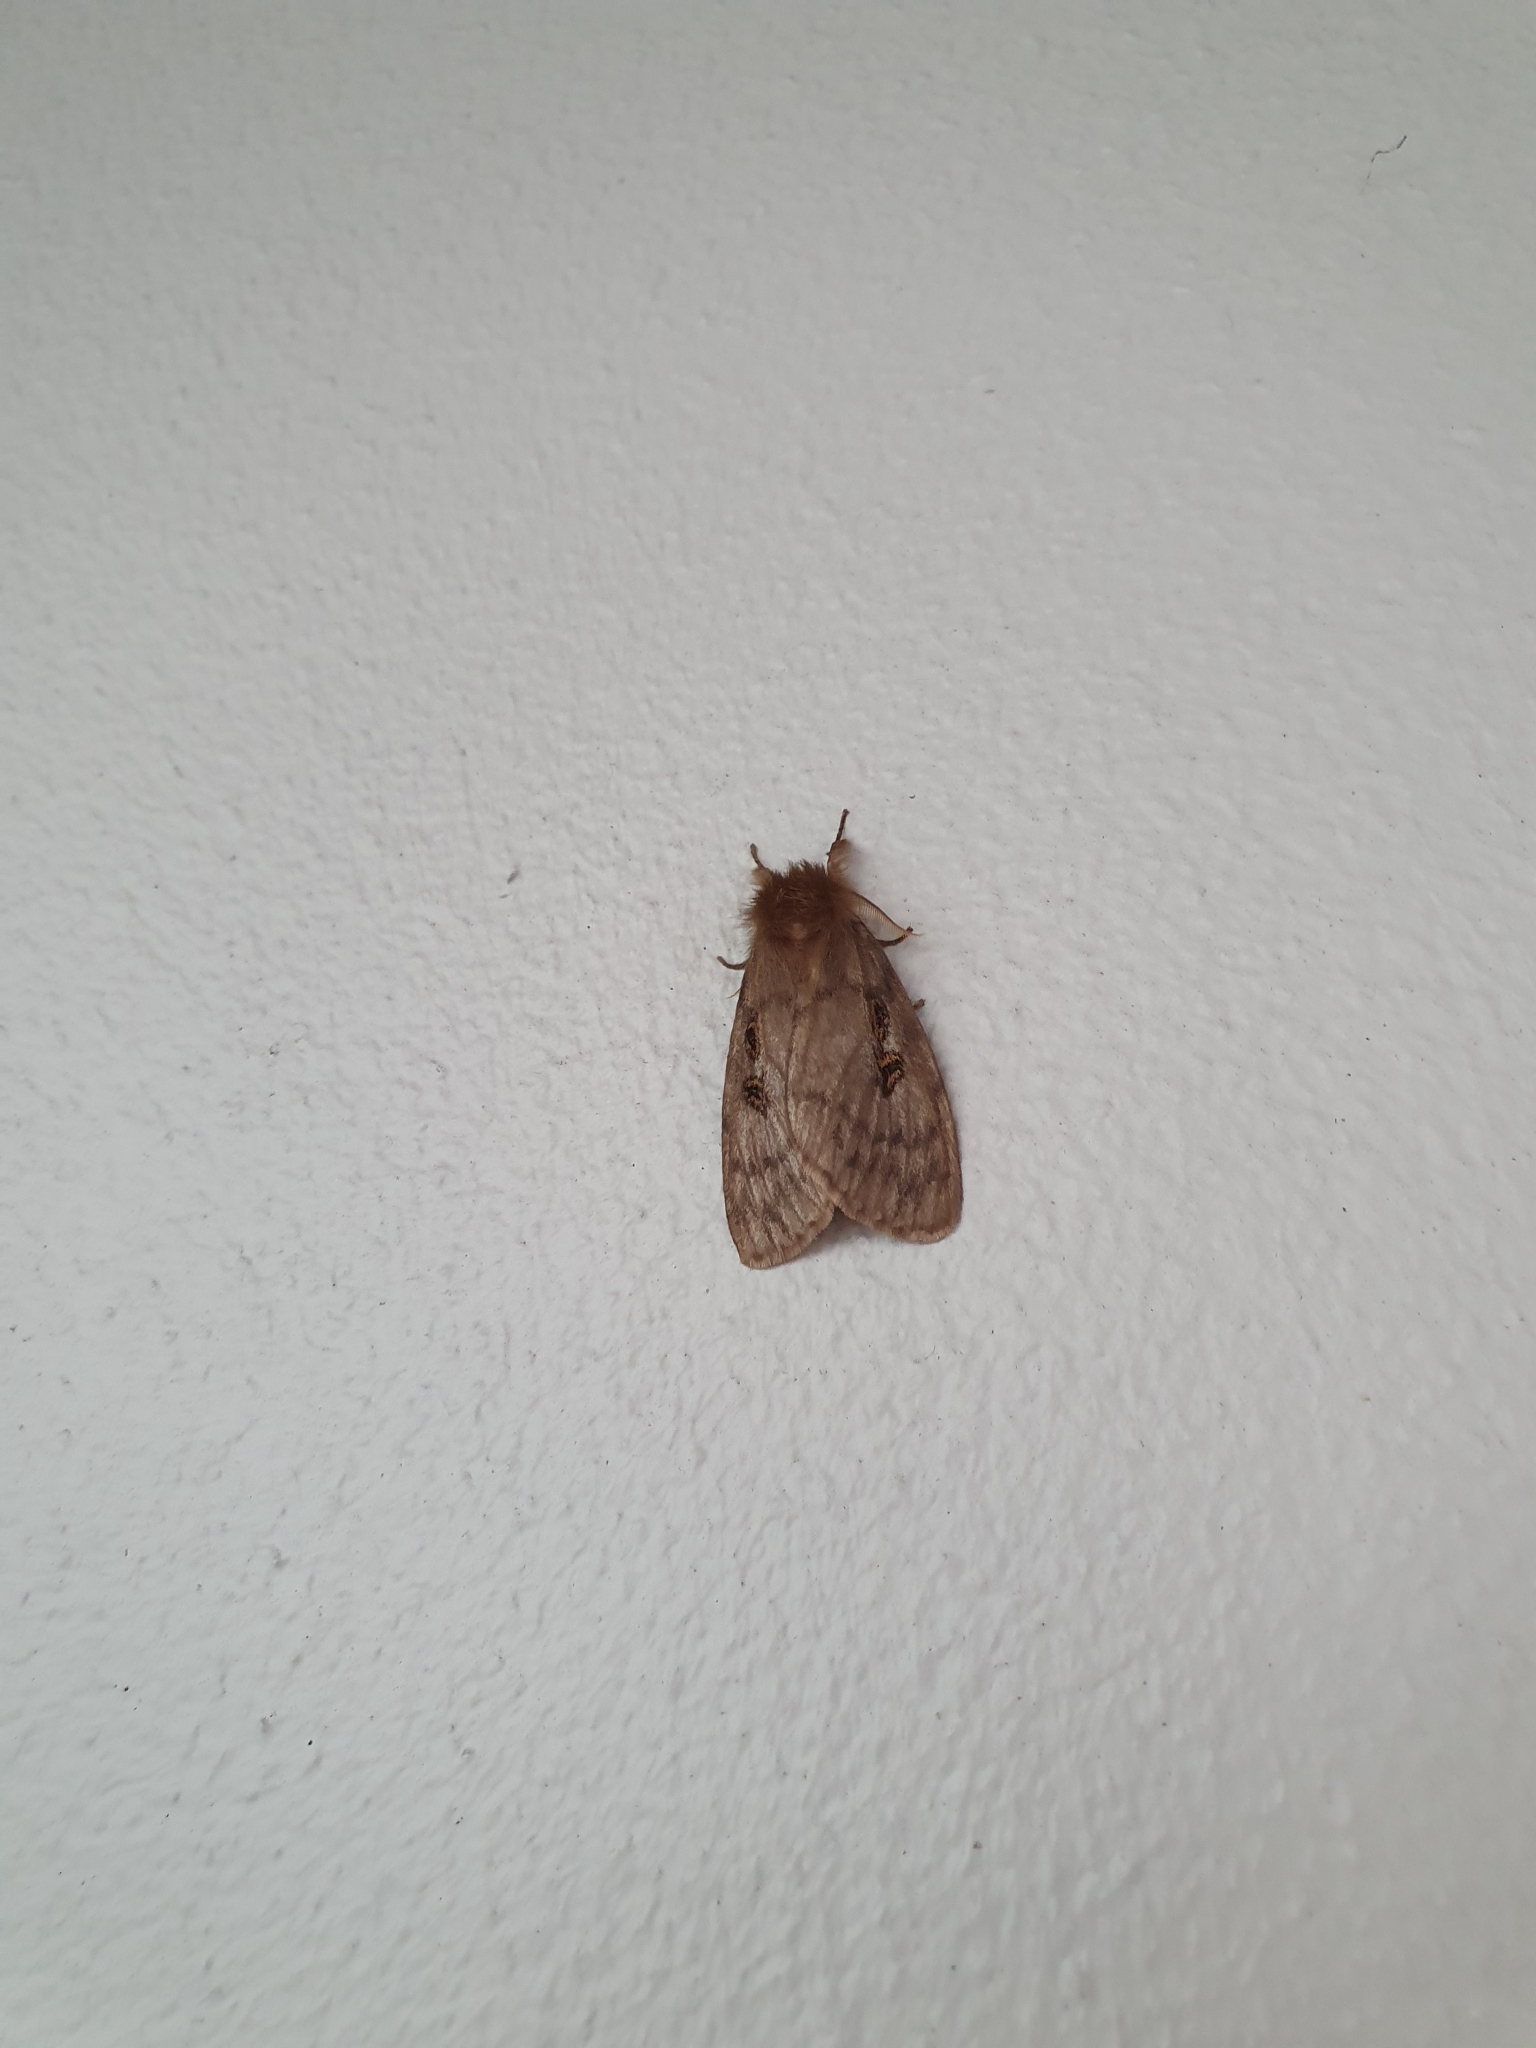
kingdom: Animalia
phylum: Arthropoda
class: Insecta
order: Lepidoptera
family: Erebidae
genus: Leptocneria
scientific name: Leptocneria reducta
